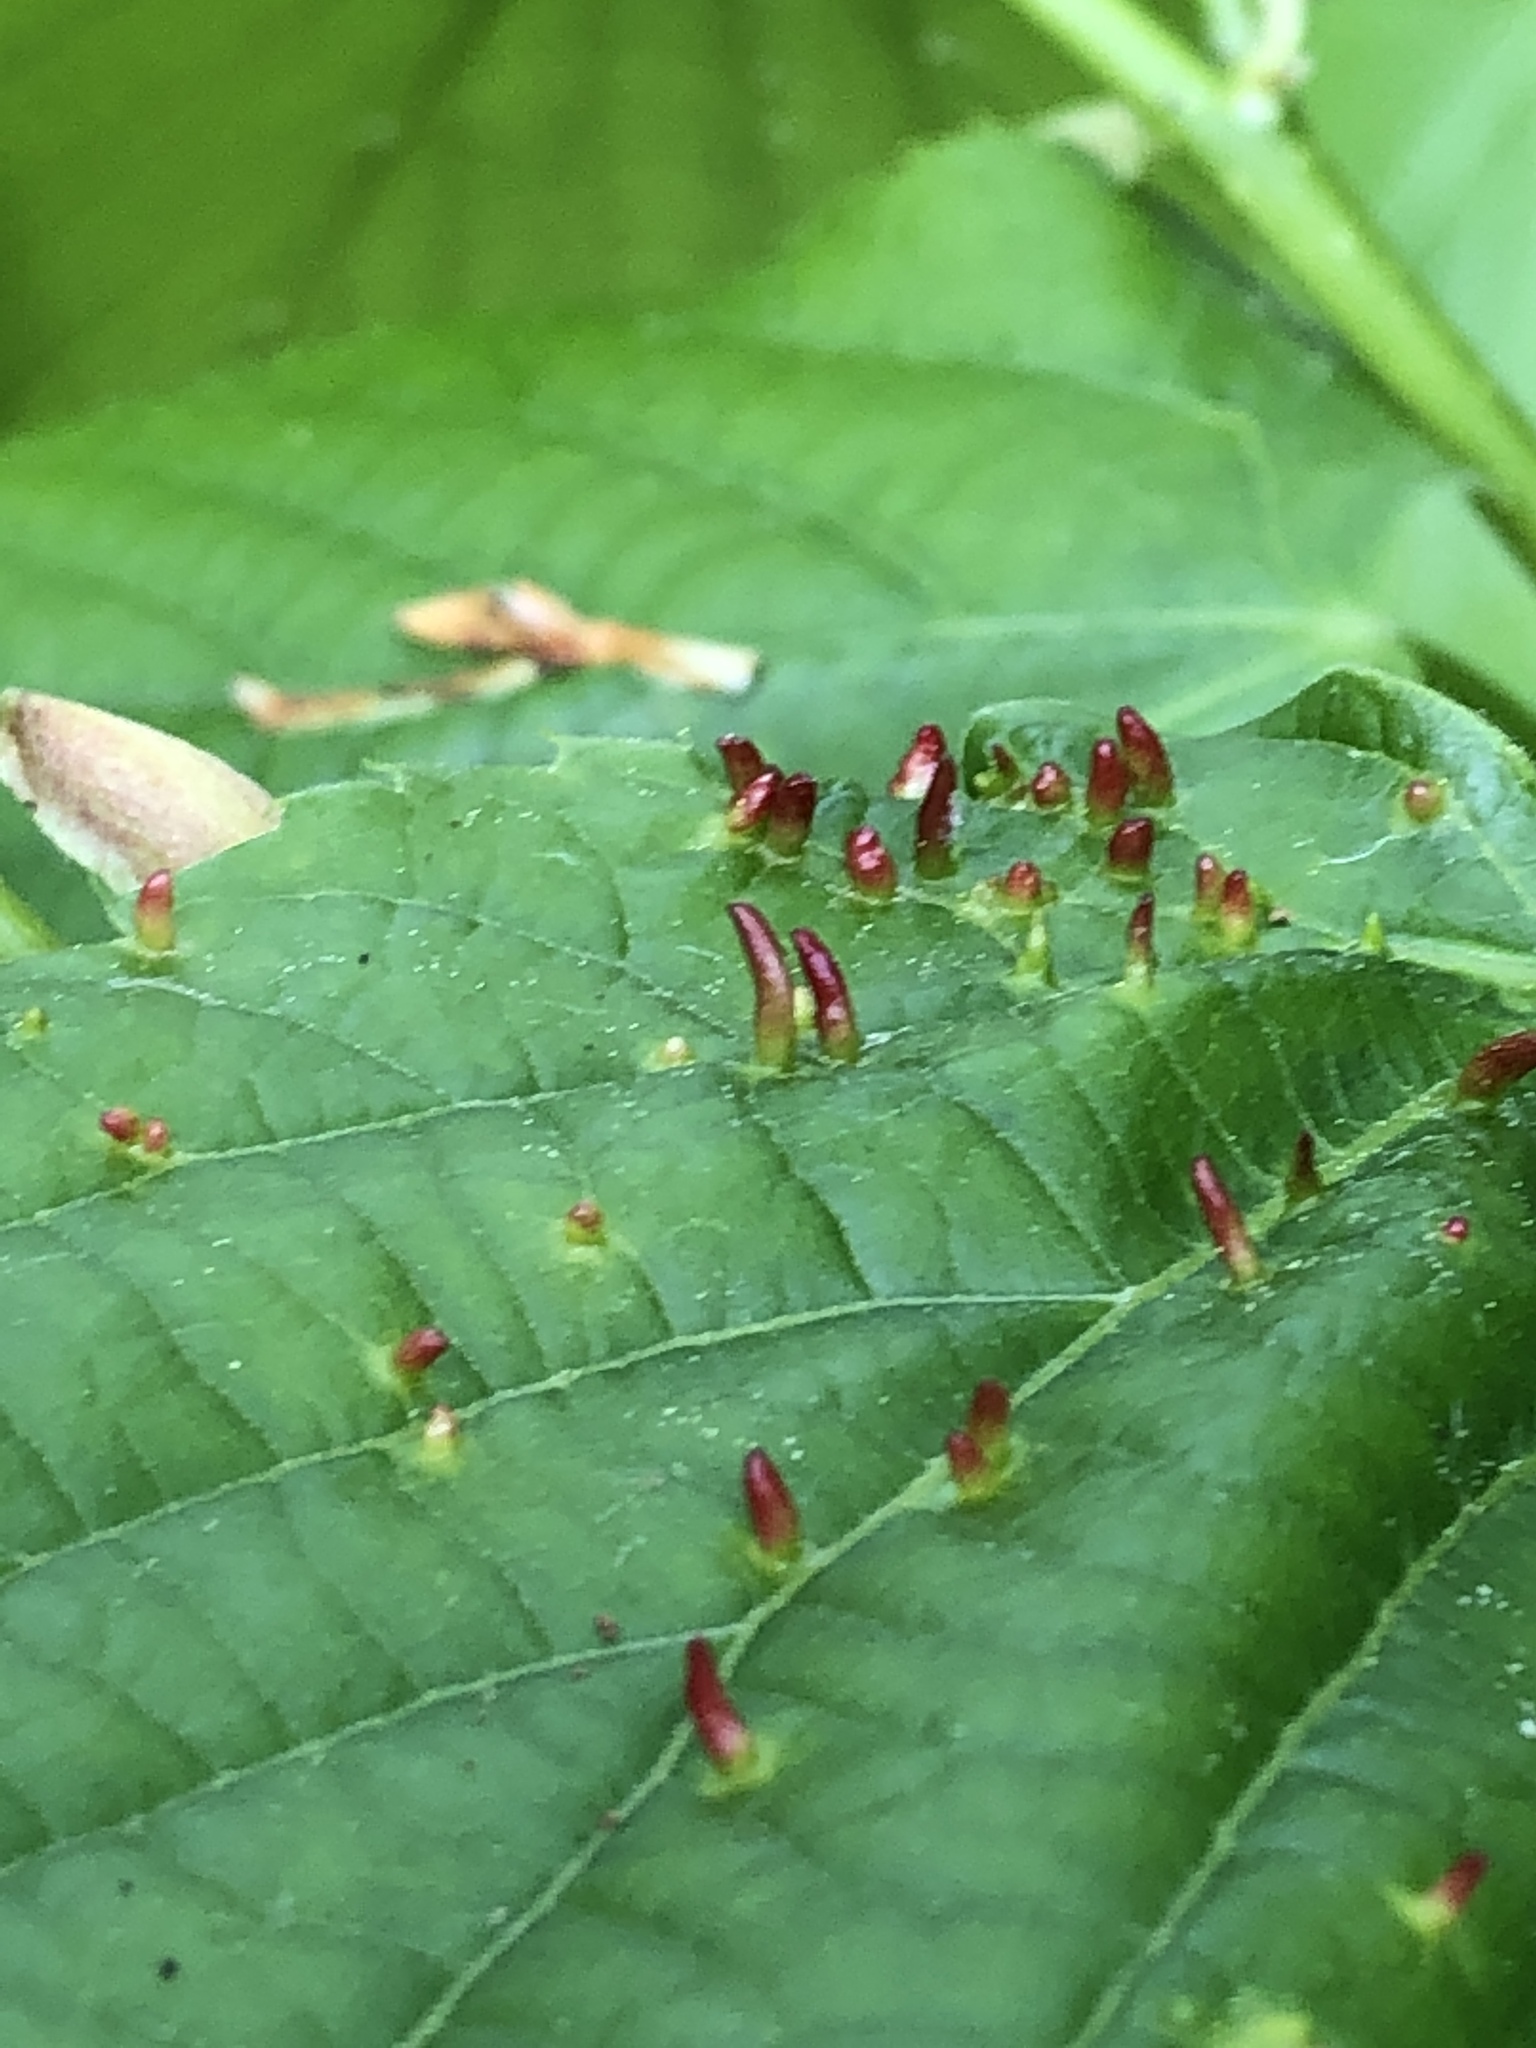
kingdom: Animalia
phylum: Arthropoda
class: Arachnida
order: Trombidiformes
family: Eriophyidae
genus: Eriophyes
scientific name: Eriophyes tiliae
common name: Red nail gall mite
